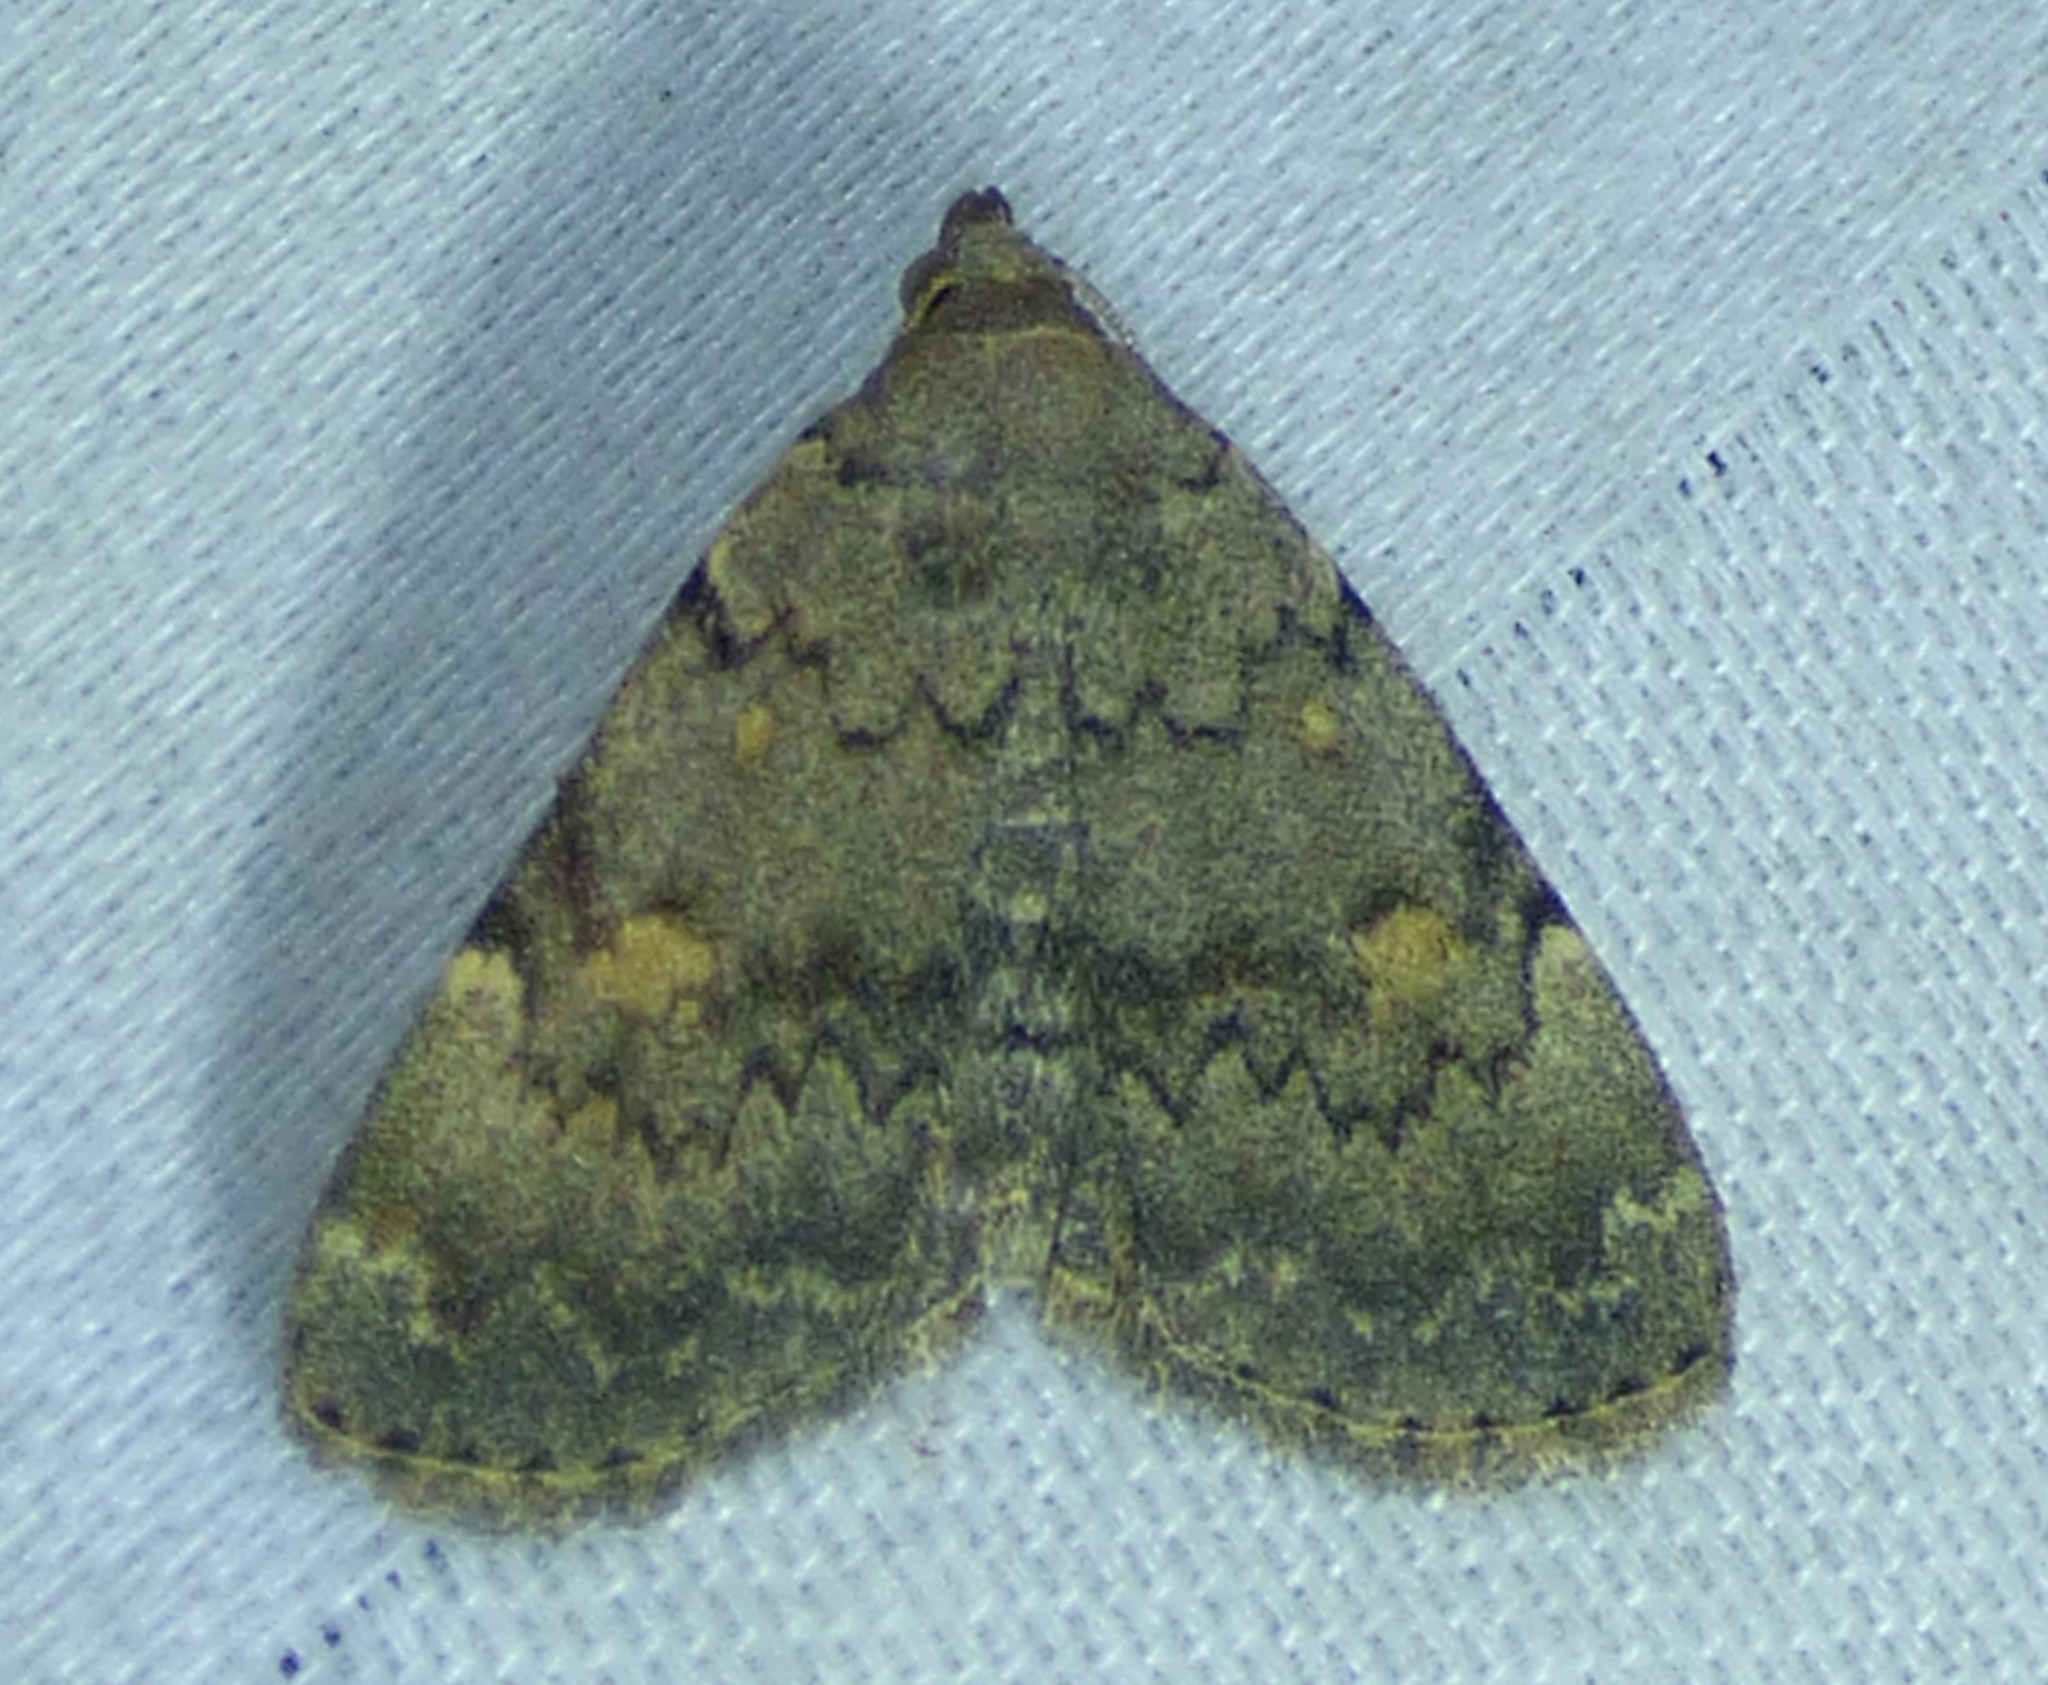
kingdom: Animalia
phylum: Arthropoda
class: Insecta
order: Lepidoptera
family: Erebidae
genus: Idia
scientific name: Idia aemula
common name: Common idia moth
